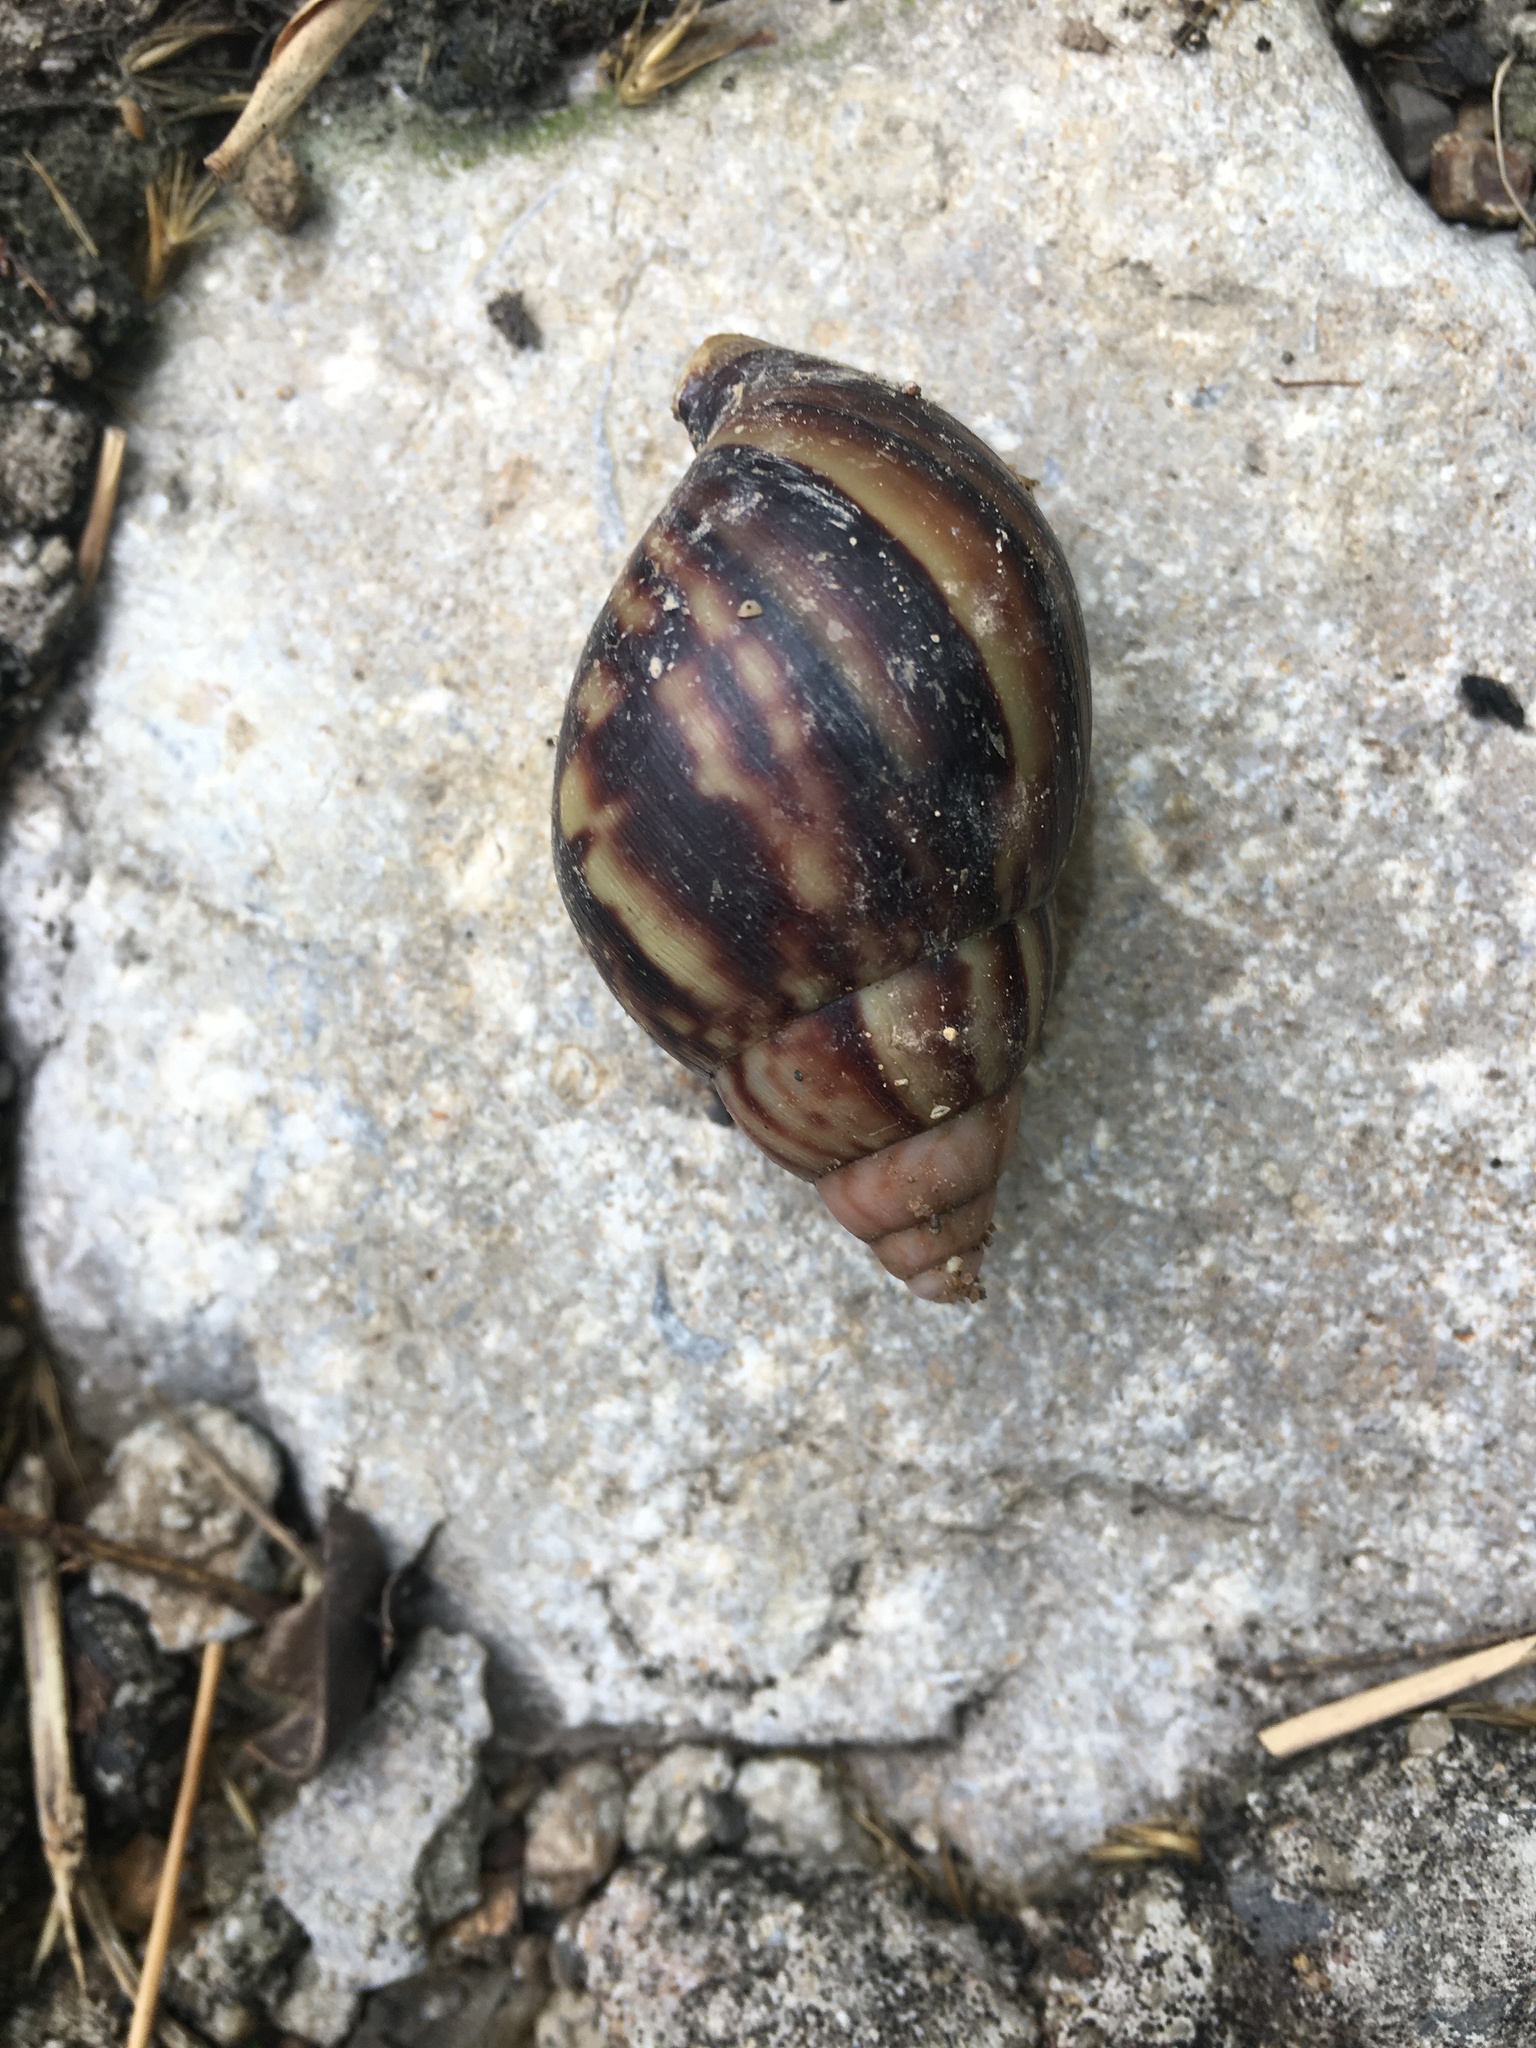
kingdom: Animalia
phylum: Mollusca
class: Gastropoda
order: Stylommatophora
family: Achatinidae
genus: Lissachatina
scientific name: Lissachatina fulica
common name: Giant african snail
